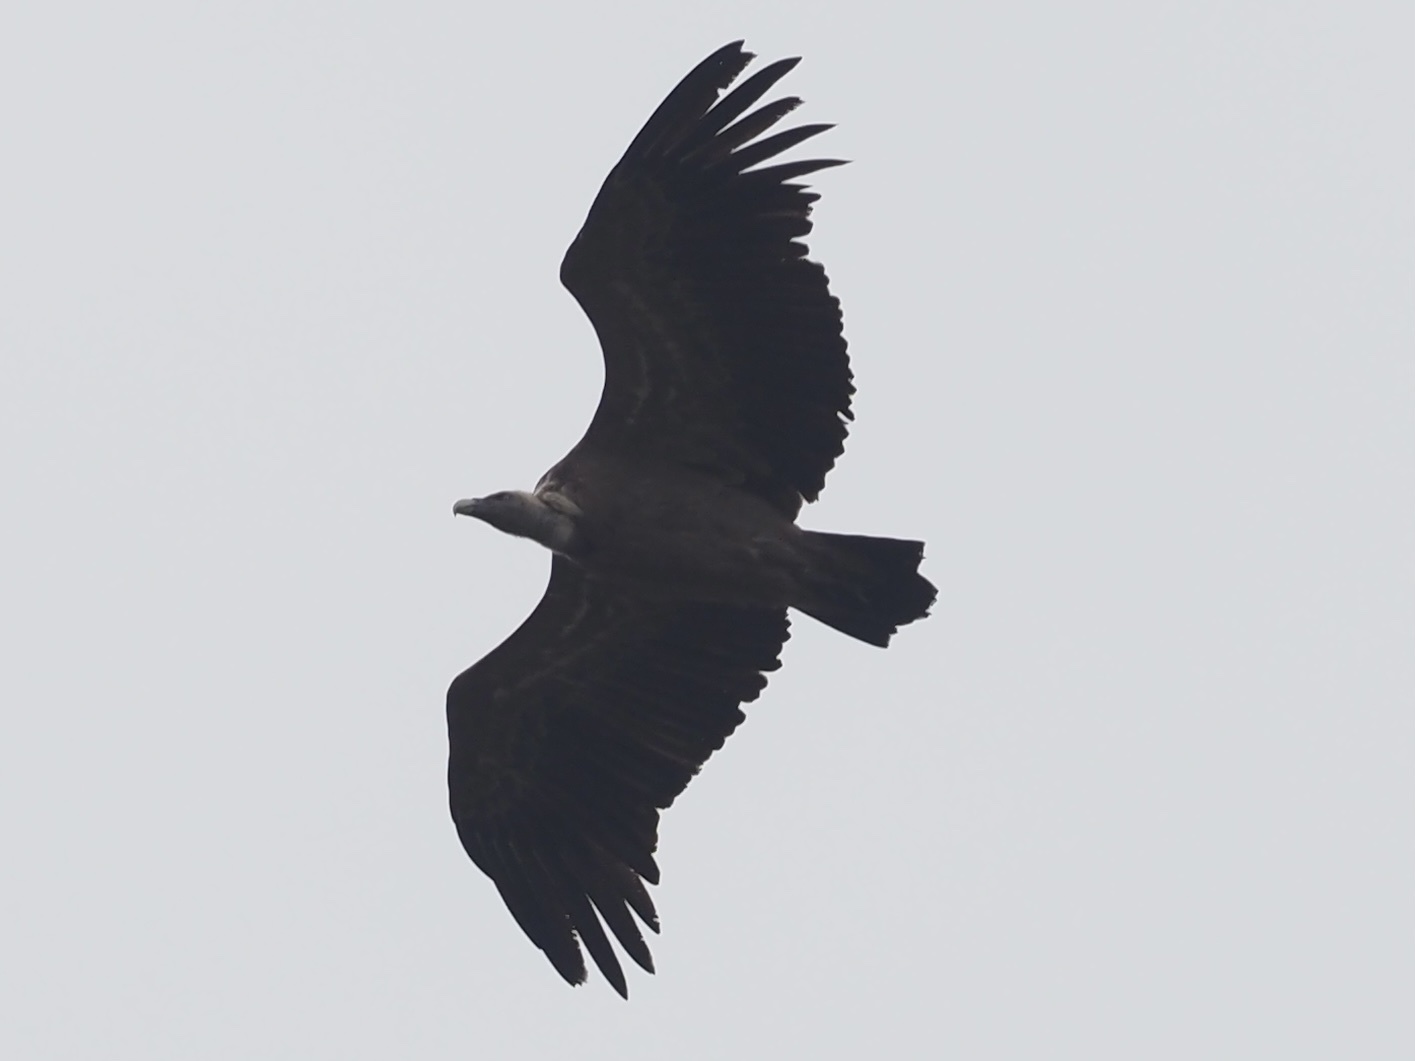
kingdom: Animalia
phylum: Chordata
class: Aves
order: Accipitriformes
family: Accipitridae
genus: Gyps
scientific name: Gyps fulvus
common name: Griffon vulture
